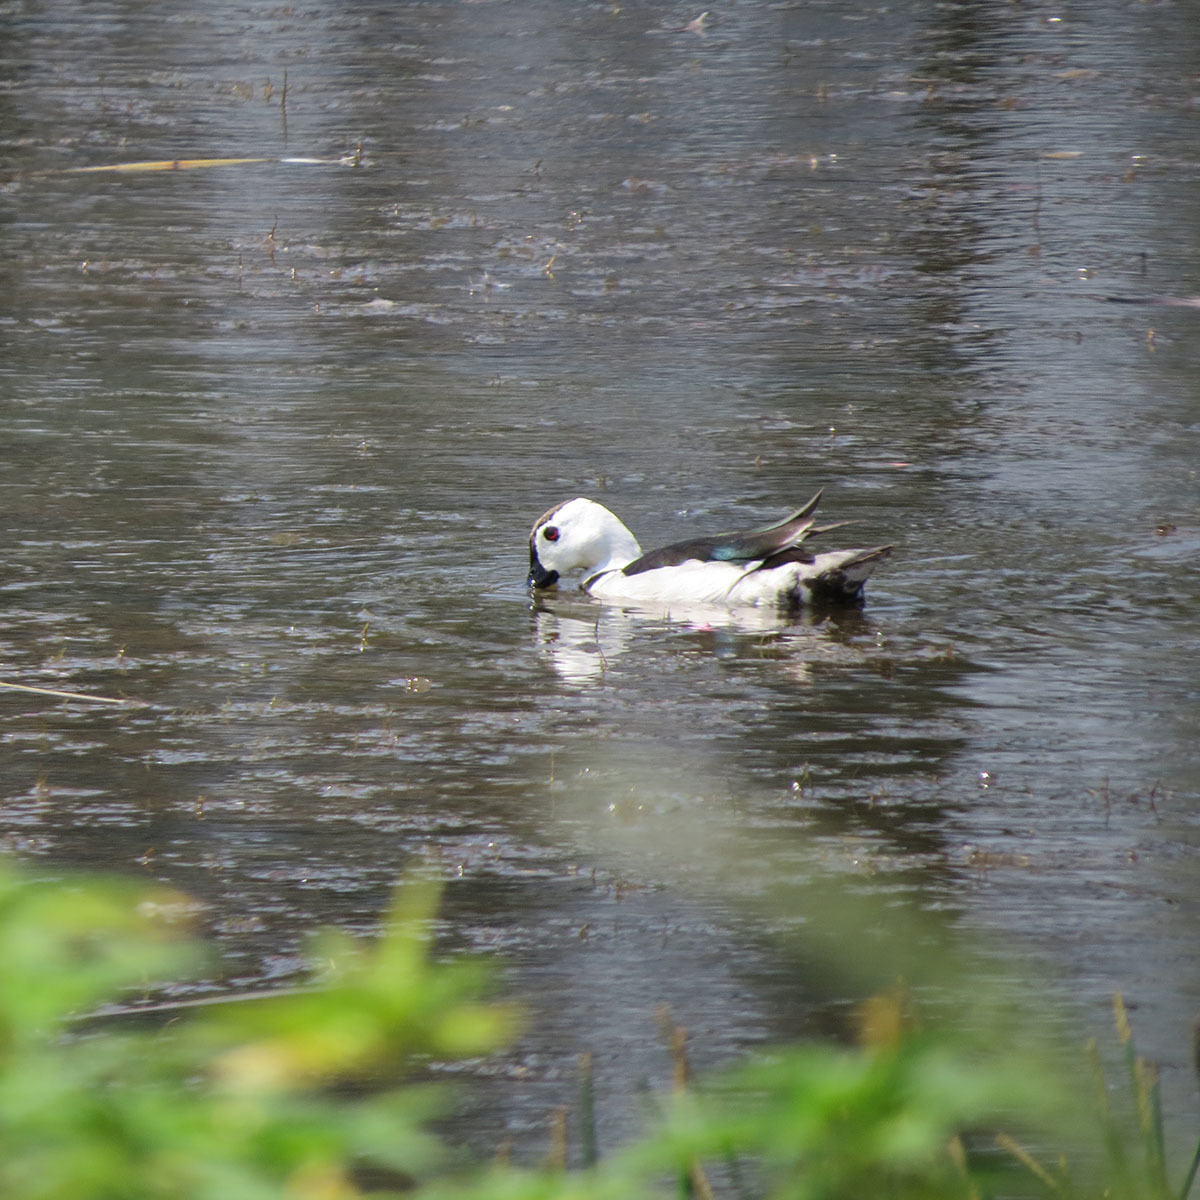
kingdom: Animalia
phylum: Chordata
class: Aves
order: Anseriformes
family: Anatidae
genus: Nettapus
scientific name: Nettapus coromandelianus
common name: Cotton pygmy-goose
